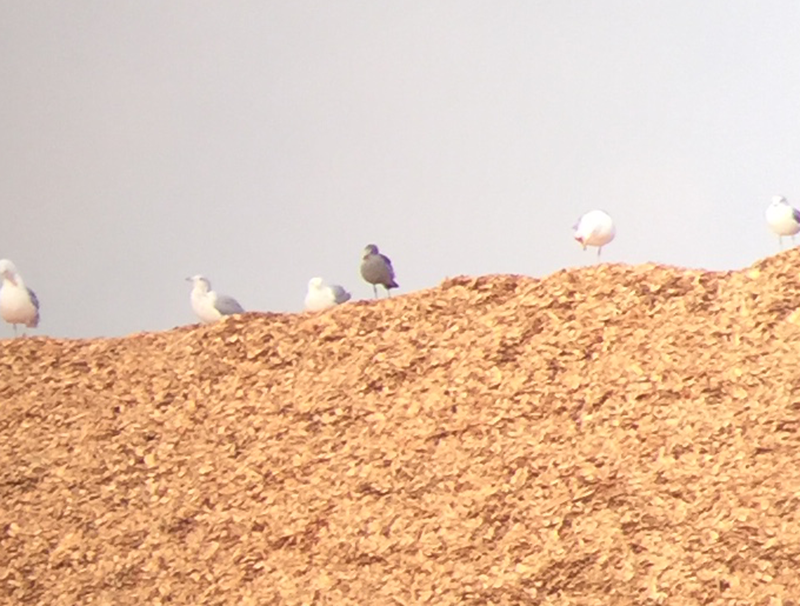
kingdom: Animalia
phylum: Chordata
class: Aves
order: Charadriiformes
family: Laridae
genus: Larus
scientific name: Larus heermanni
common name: Heermann's gull
